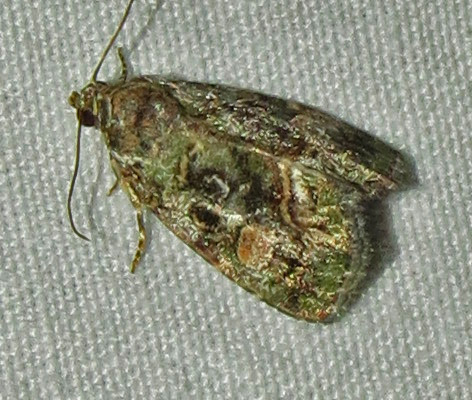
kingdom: Animalia
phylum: Arthropoda
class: Insecta
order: Lepidoptera
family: Noctuidae
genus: Lithacodia
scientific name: Lithacodia musta
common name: Small mossy glyph
